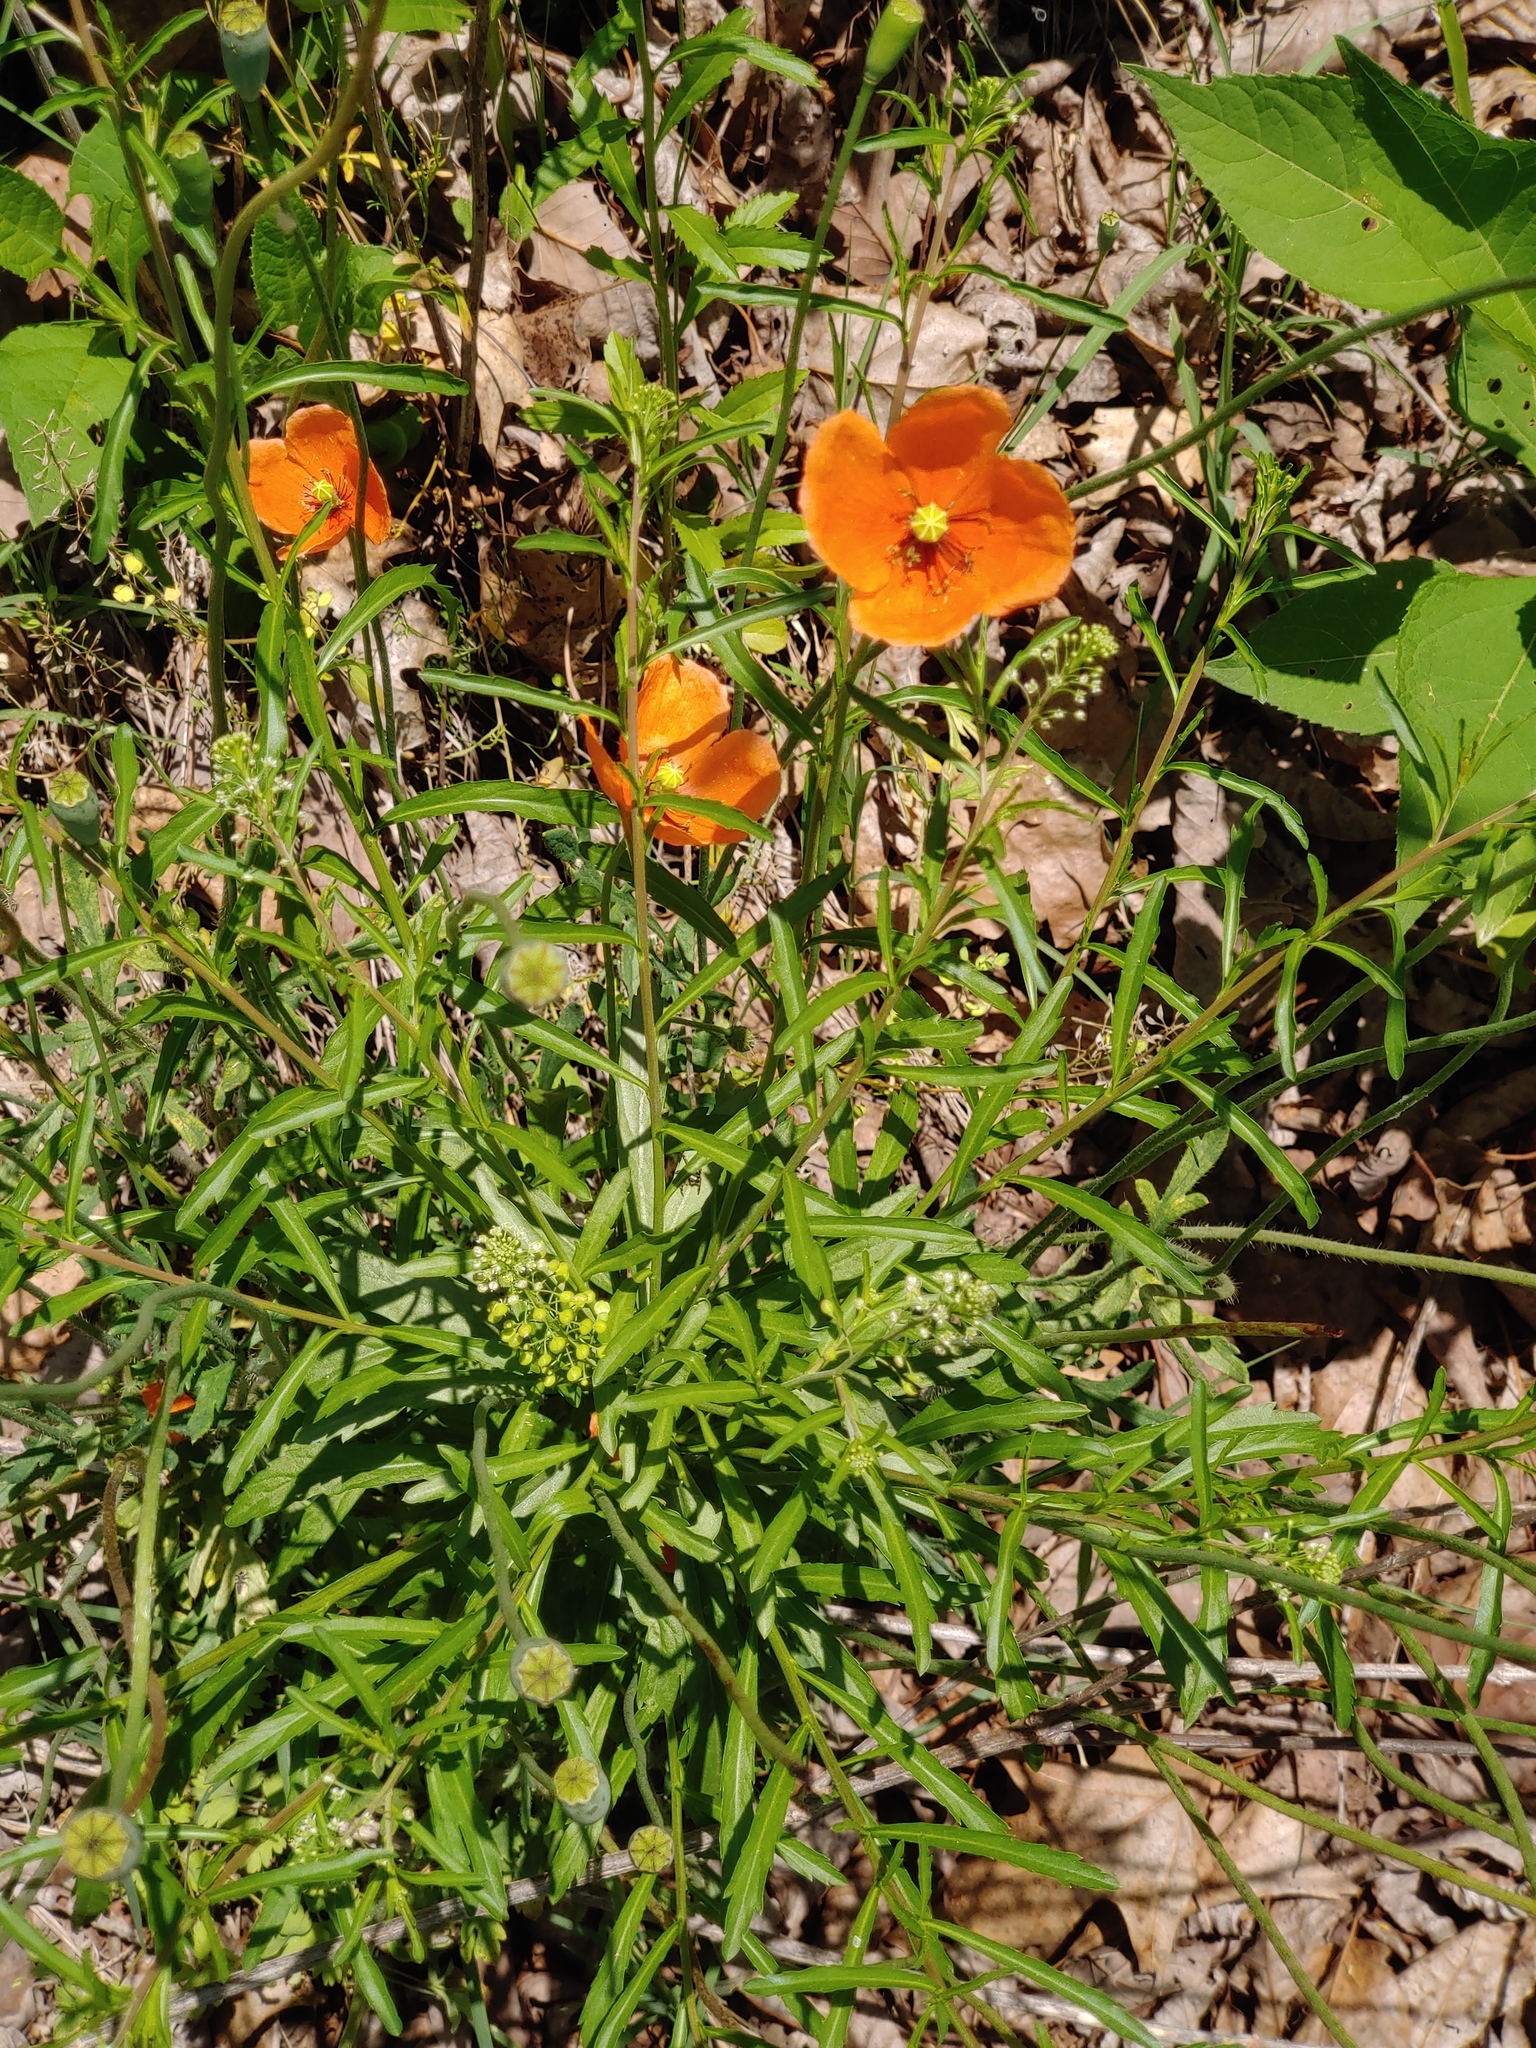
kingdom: Plantae
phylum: Tracheophyta
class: Magnoliopsida
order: Ranunculales
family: Papaveraceae
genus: Papaver
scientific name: Papaver dubium
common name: Long-headed poppy
